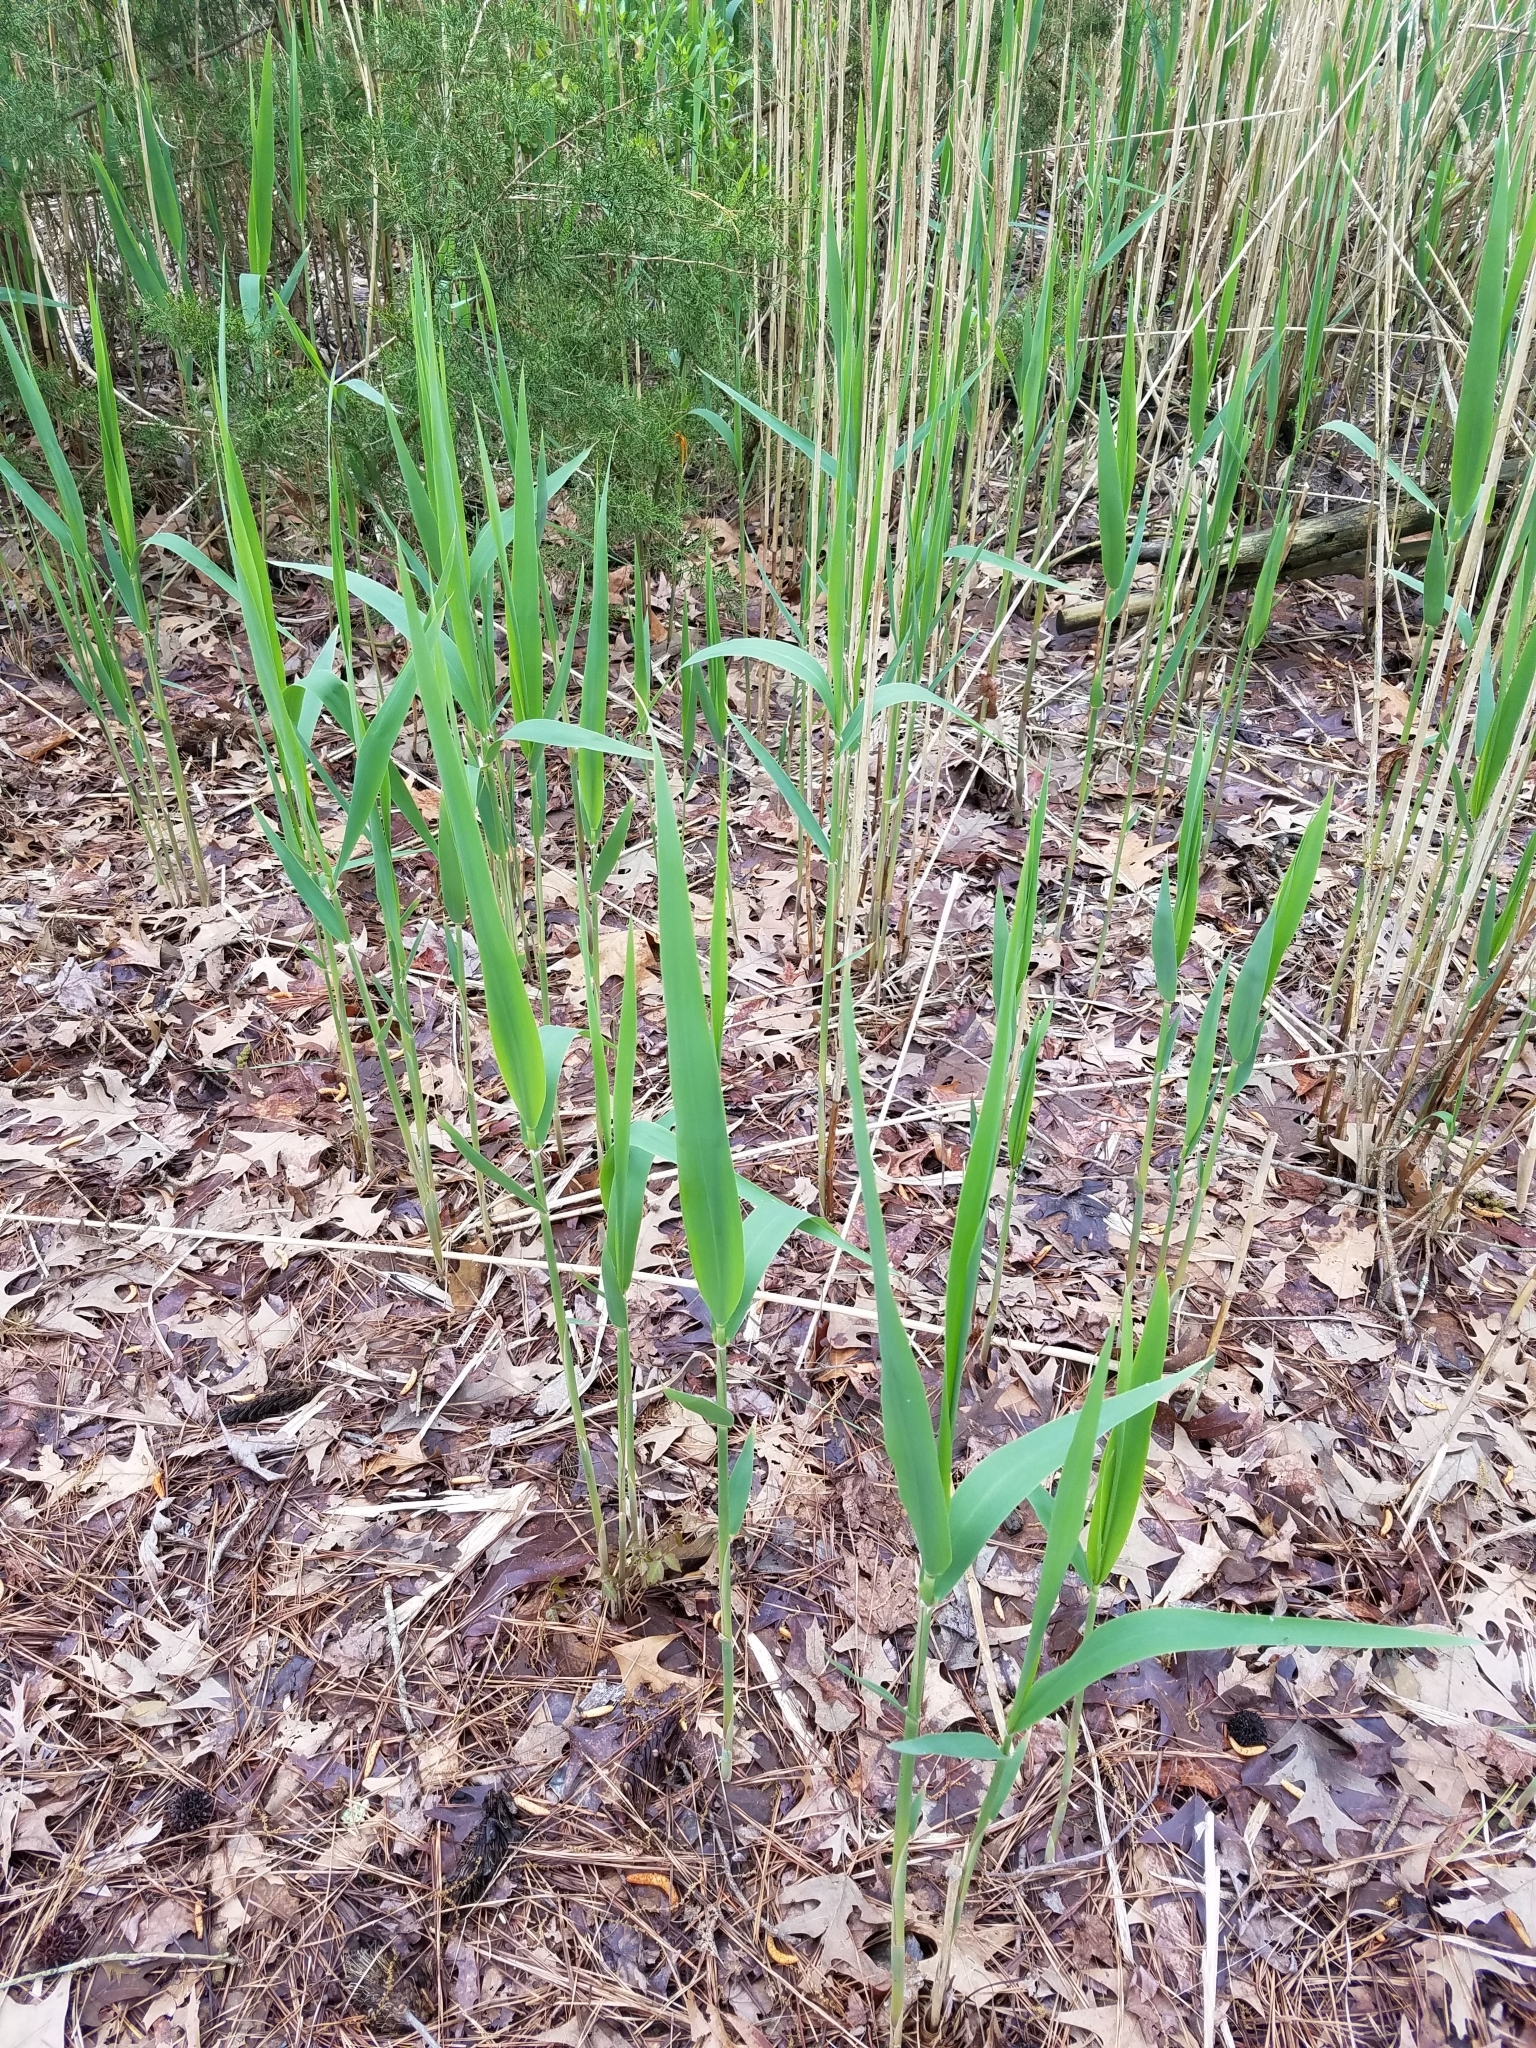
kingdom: Plantae
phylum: Tracheophyta
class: Liliopsida
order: Poales
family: Poaceae
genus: Phragmites
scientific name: Phragmites australis
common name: Common reed
